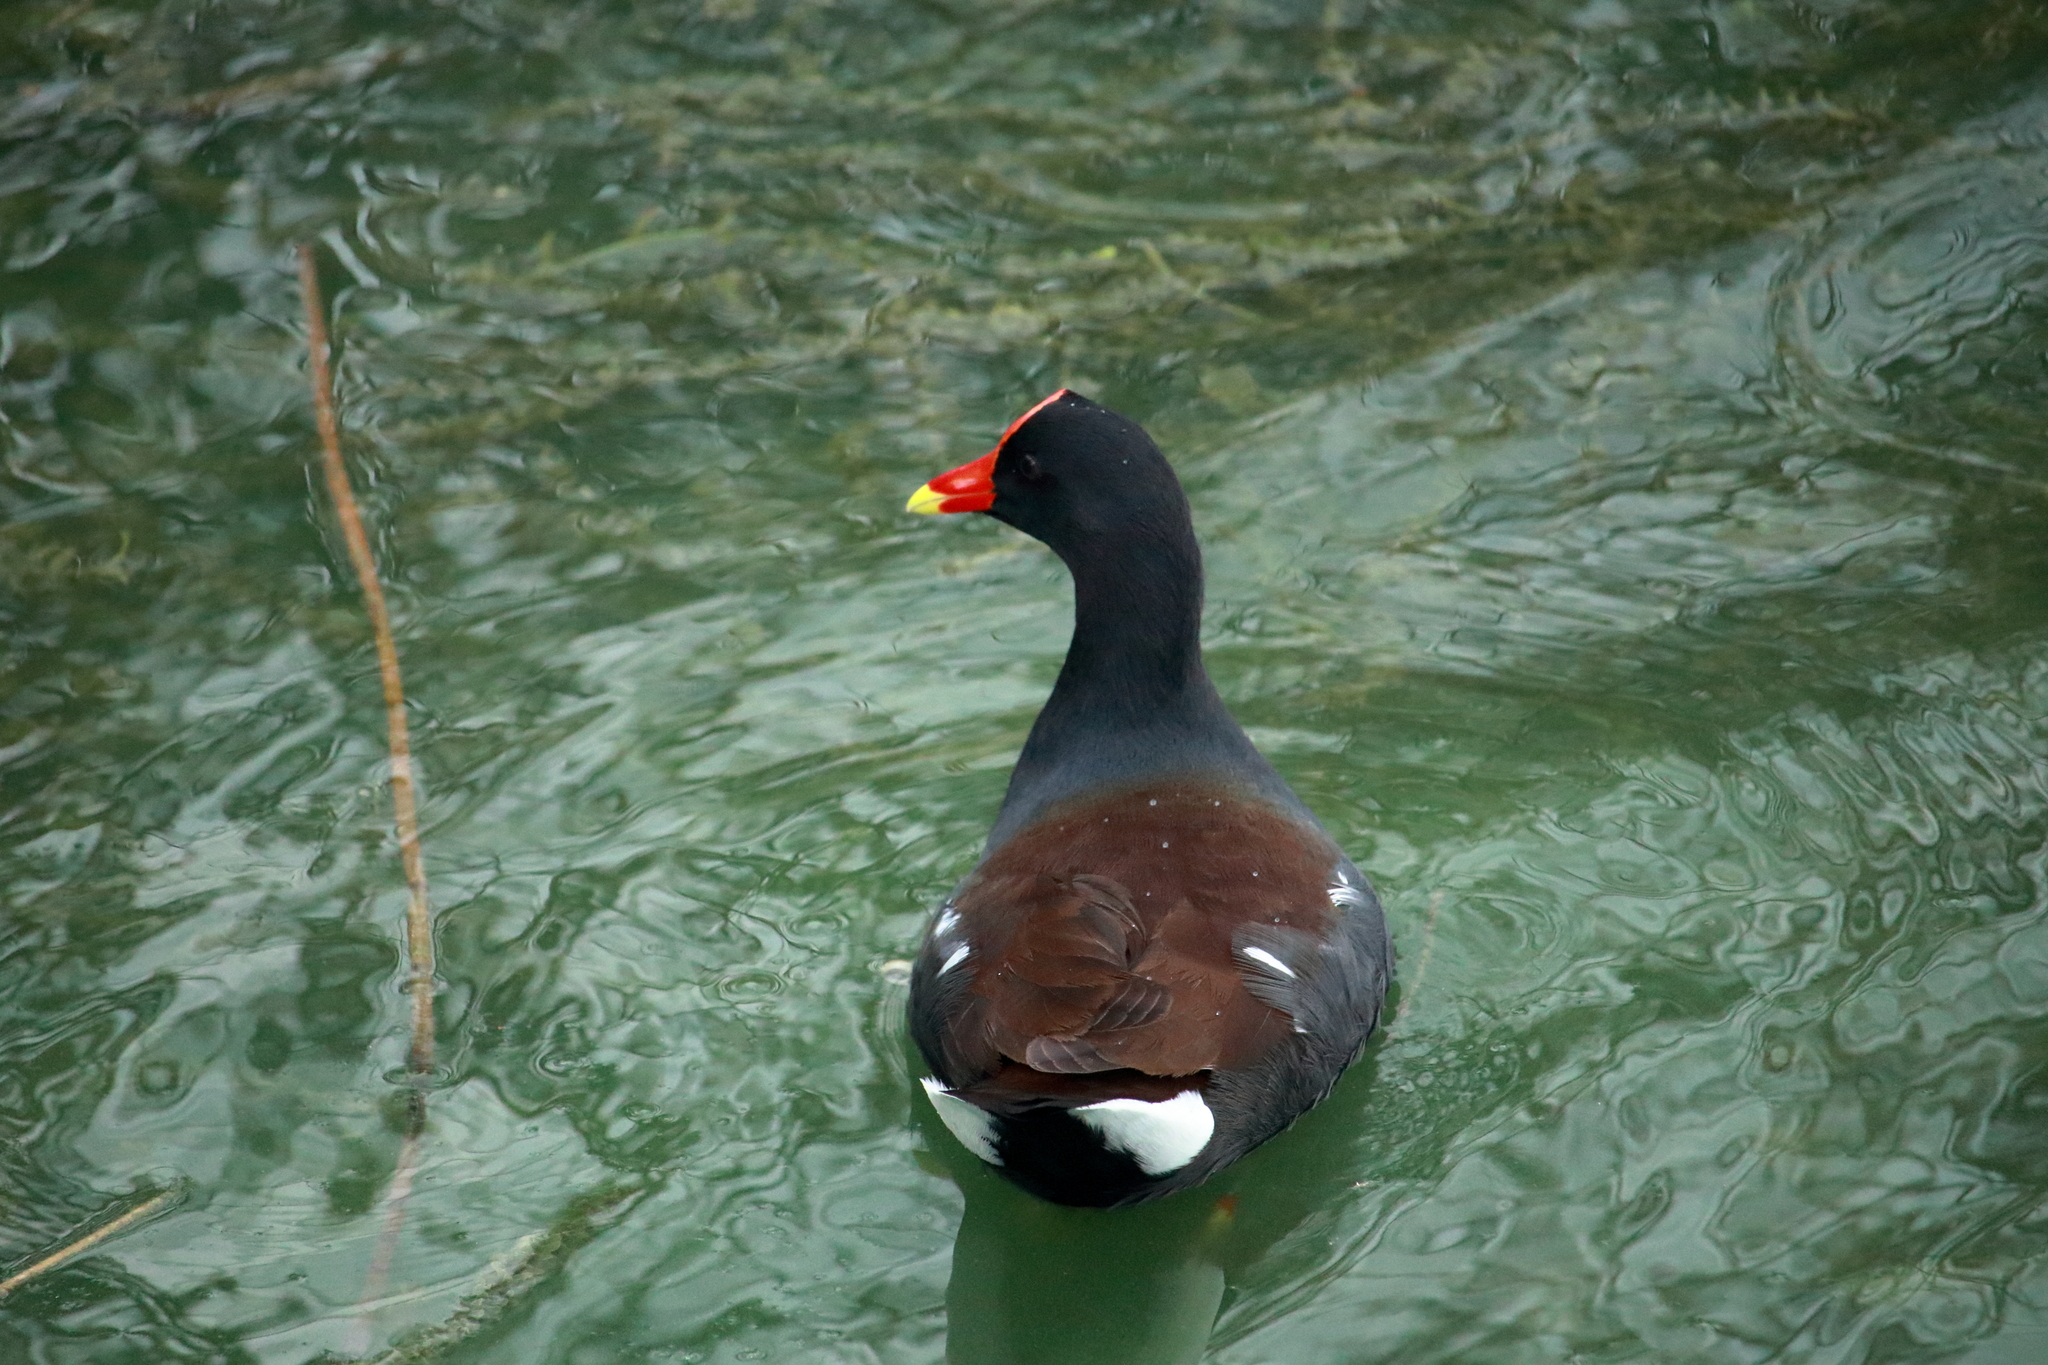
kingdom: Animalia
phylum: Chordata
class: Aves
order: Gruiformes
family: Rallidae
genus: Gallinula
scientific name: Gallinula chloropus
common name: Common moorhen
